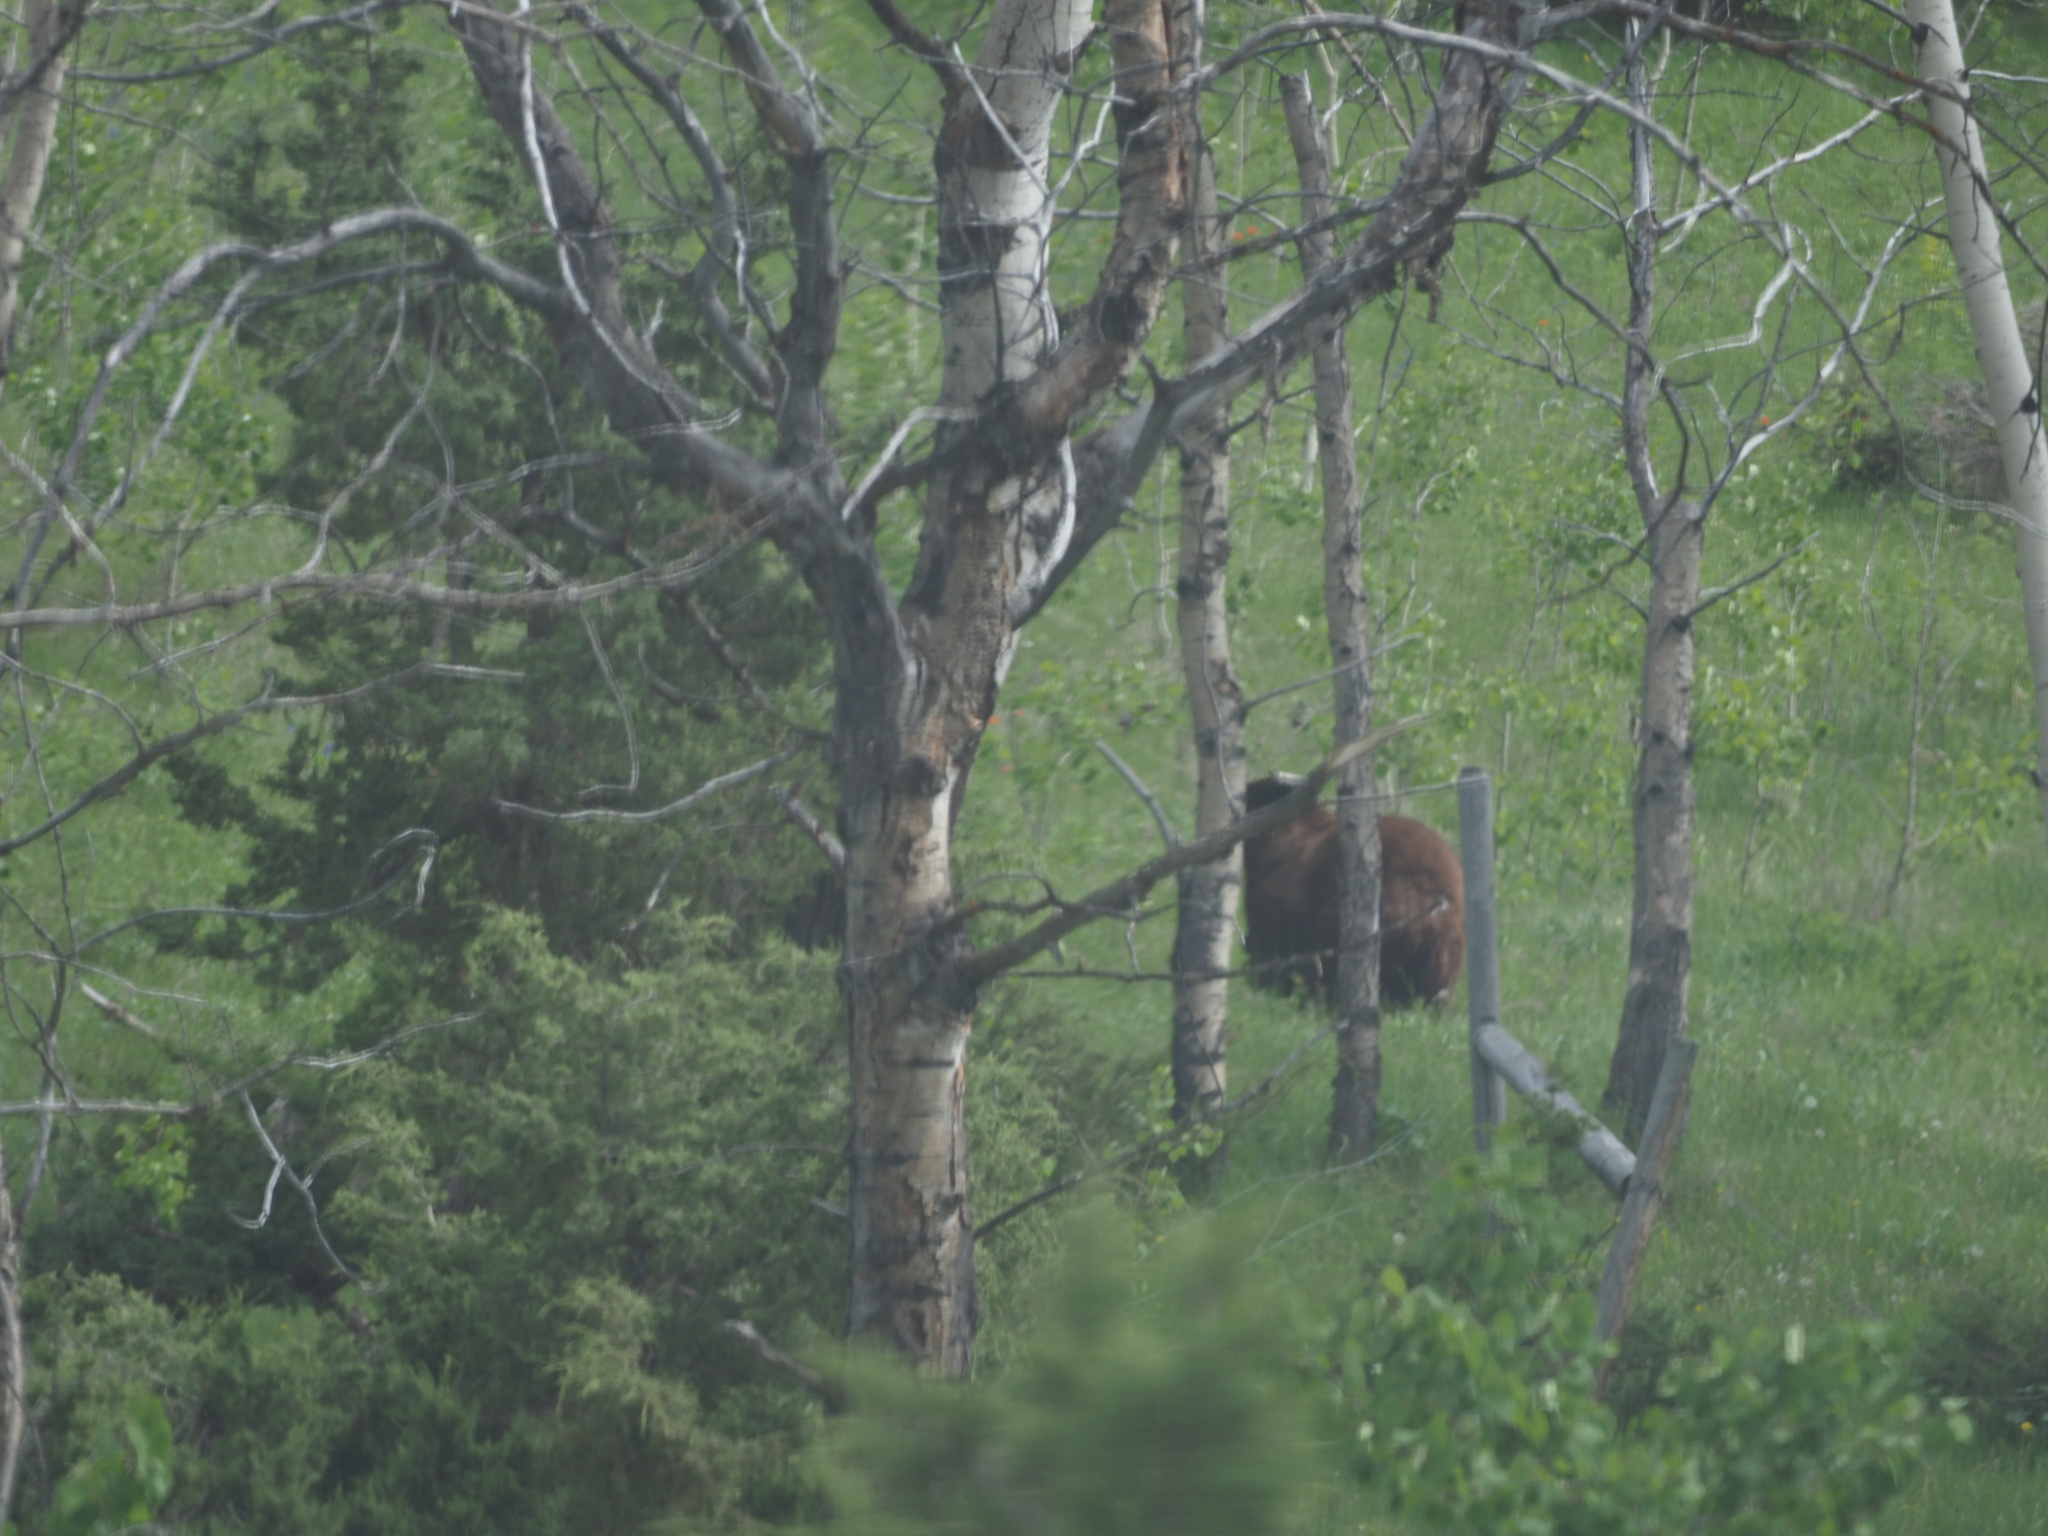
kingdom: Animalia
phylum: Chordata
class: Mammalia
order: Carnivora
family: Ursidae
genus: Ursus
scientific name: Ursus americanus
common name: American black bear
